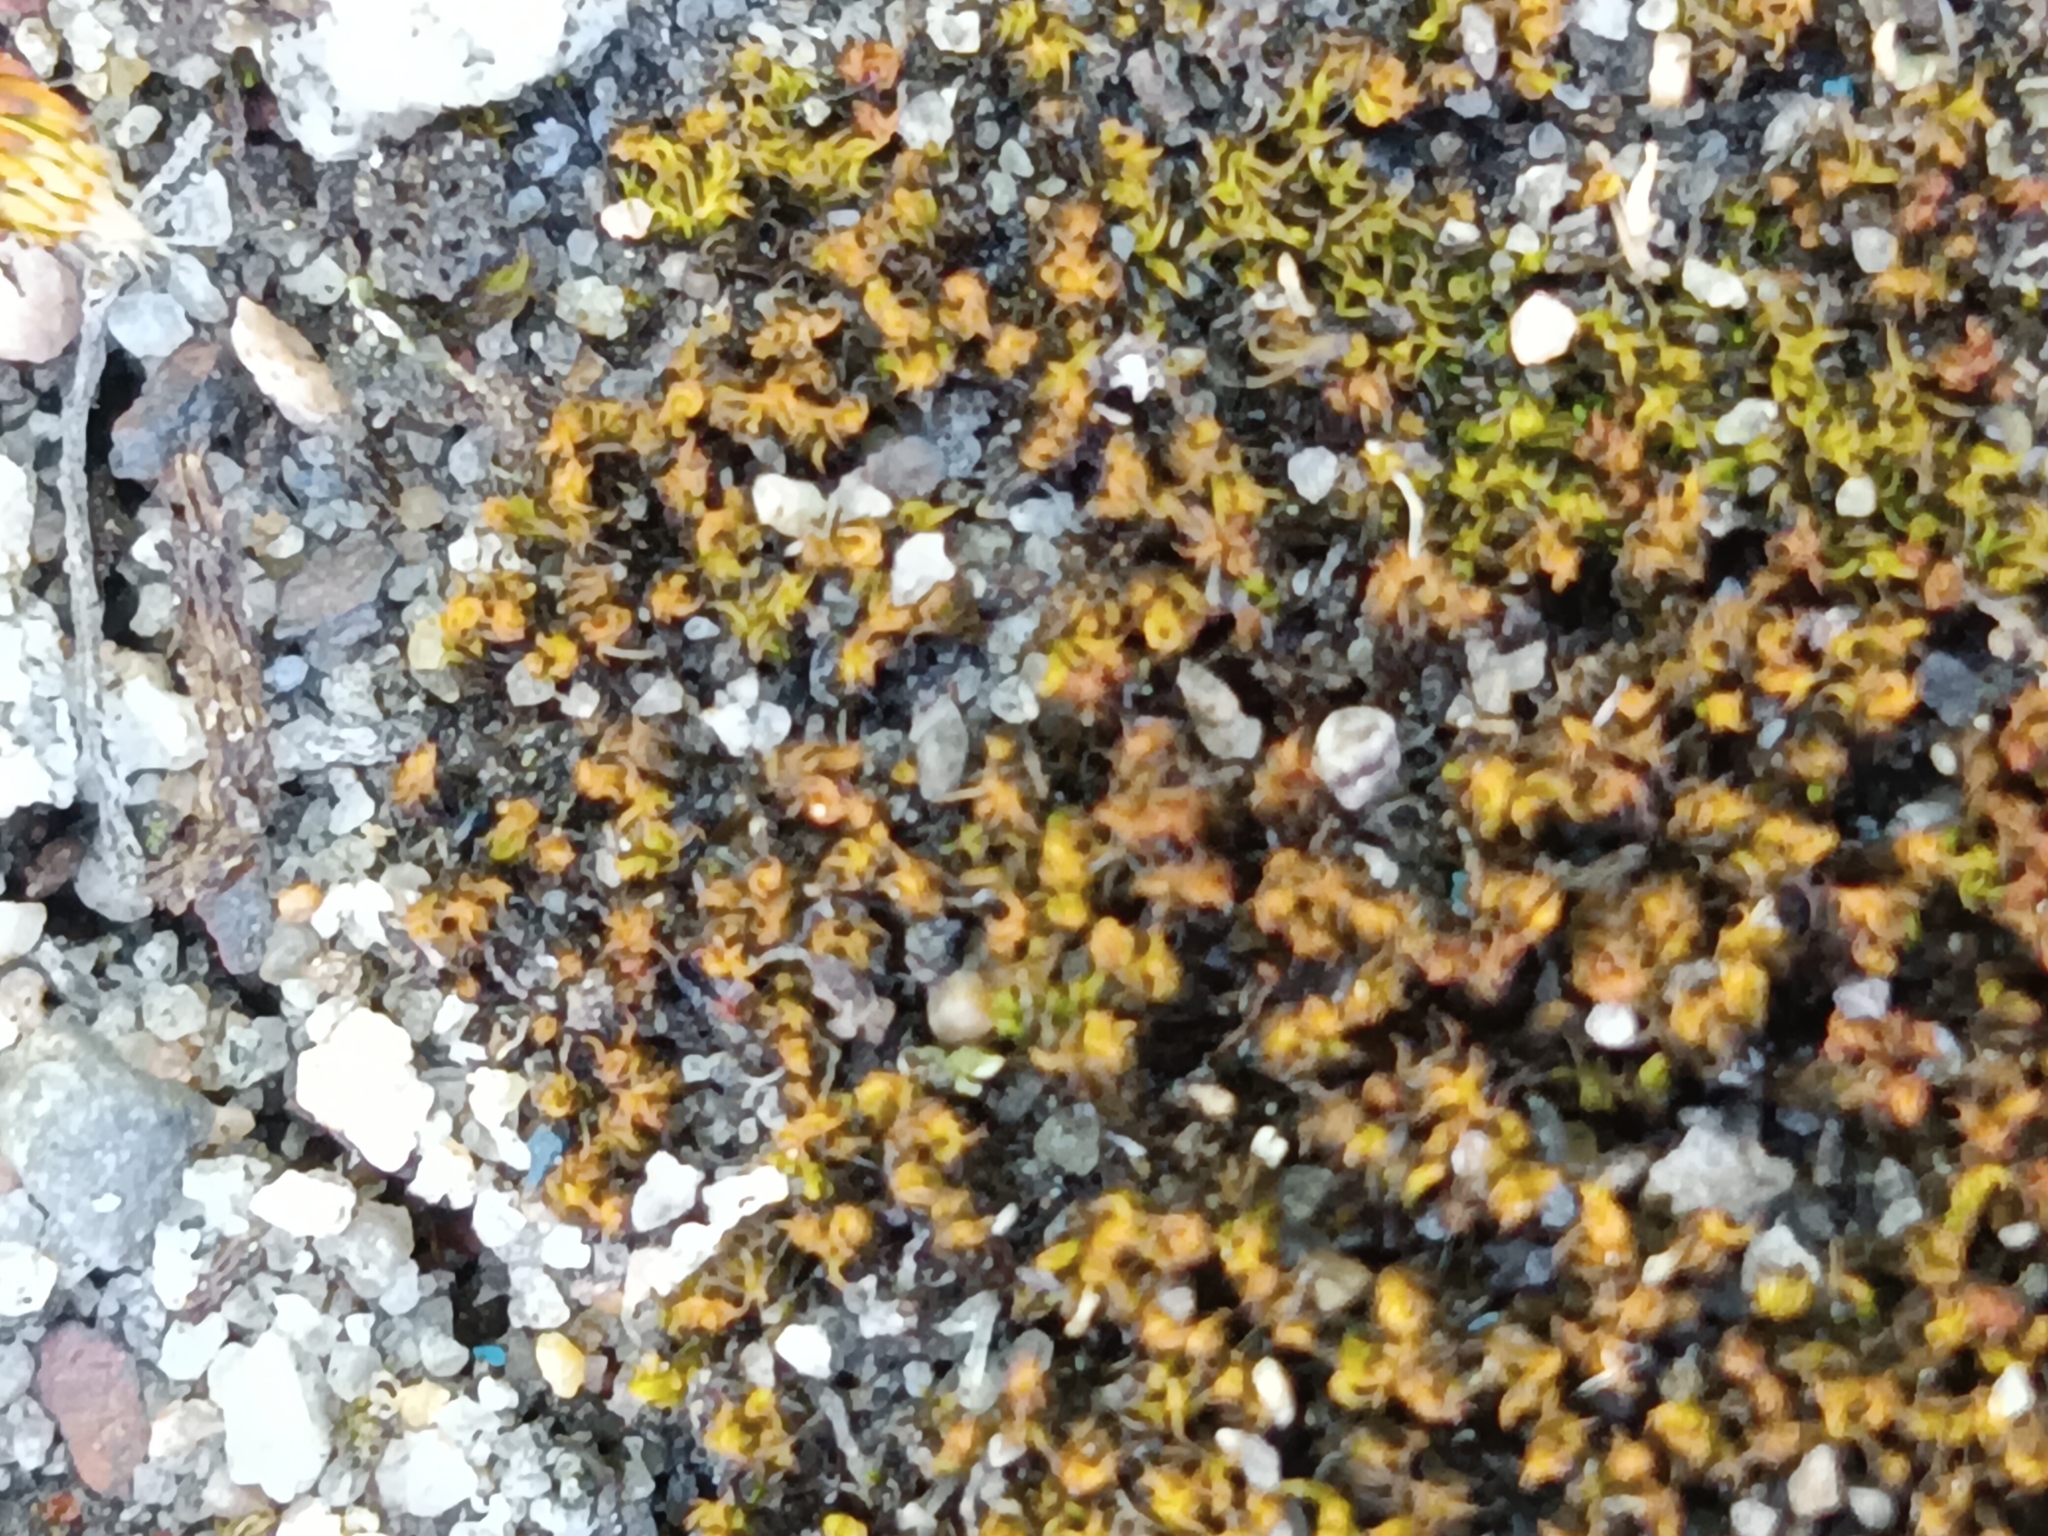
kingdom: Plantae
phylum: Bryophyta
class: Polytrichopsida
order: Polytrichales
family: Polytrichaceae
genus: Polytrichum
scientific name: Polytrichum piliferum
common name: Bristly haircap
